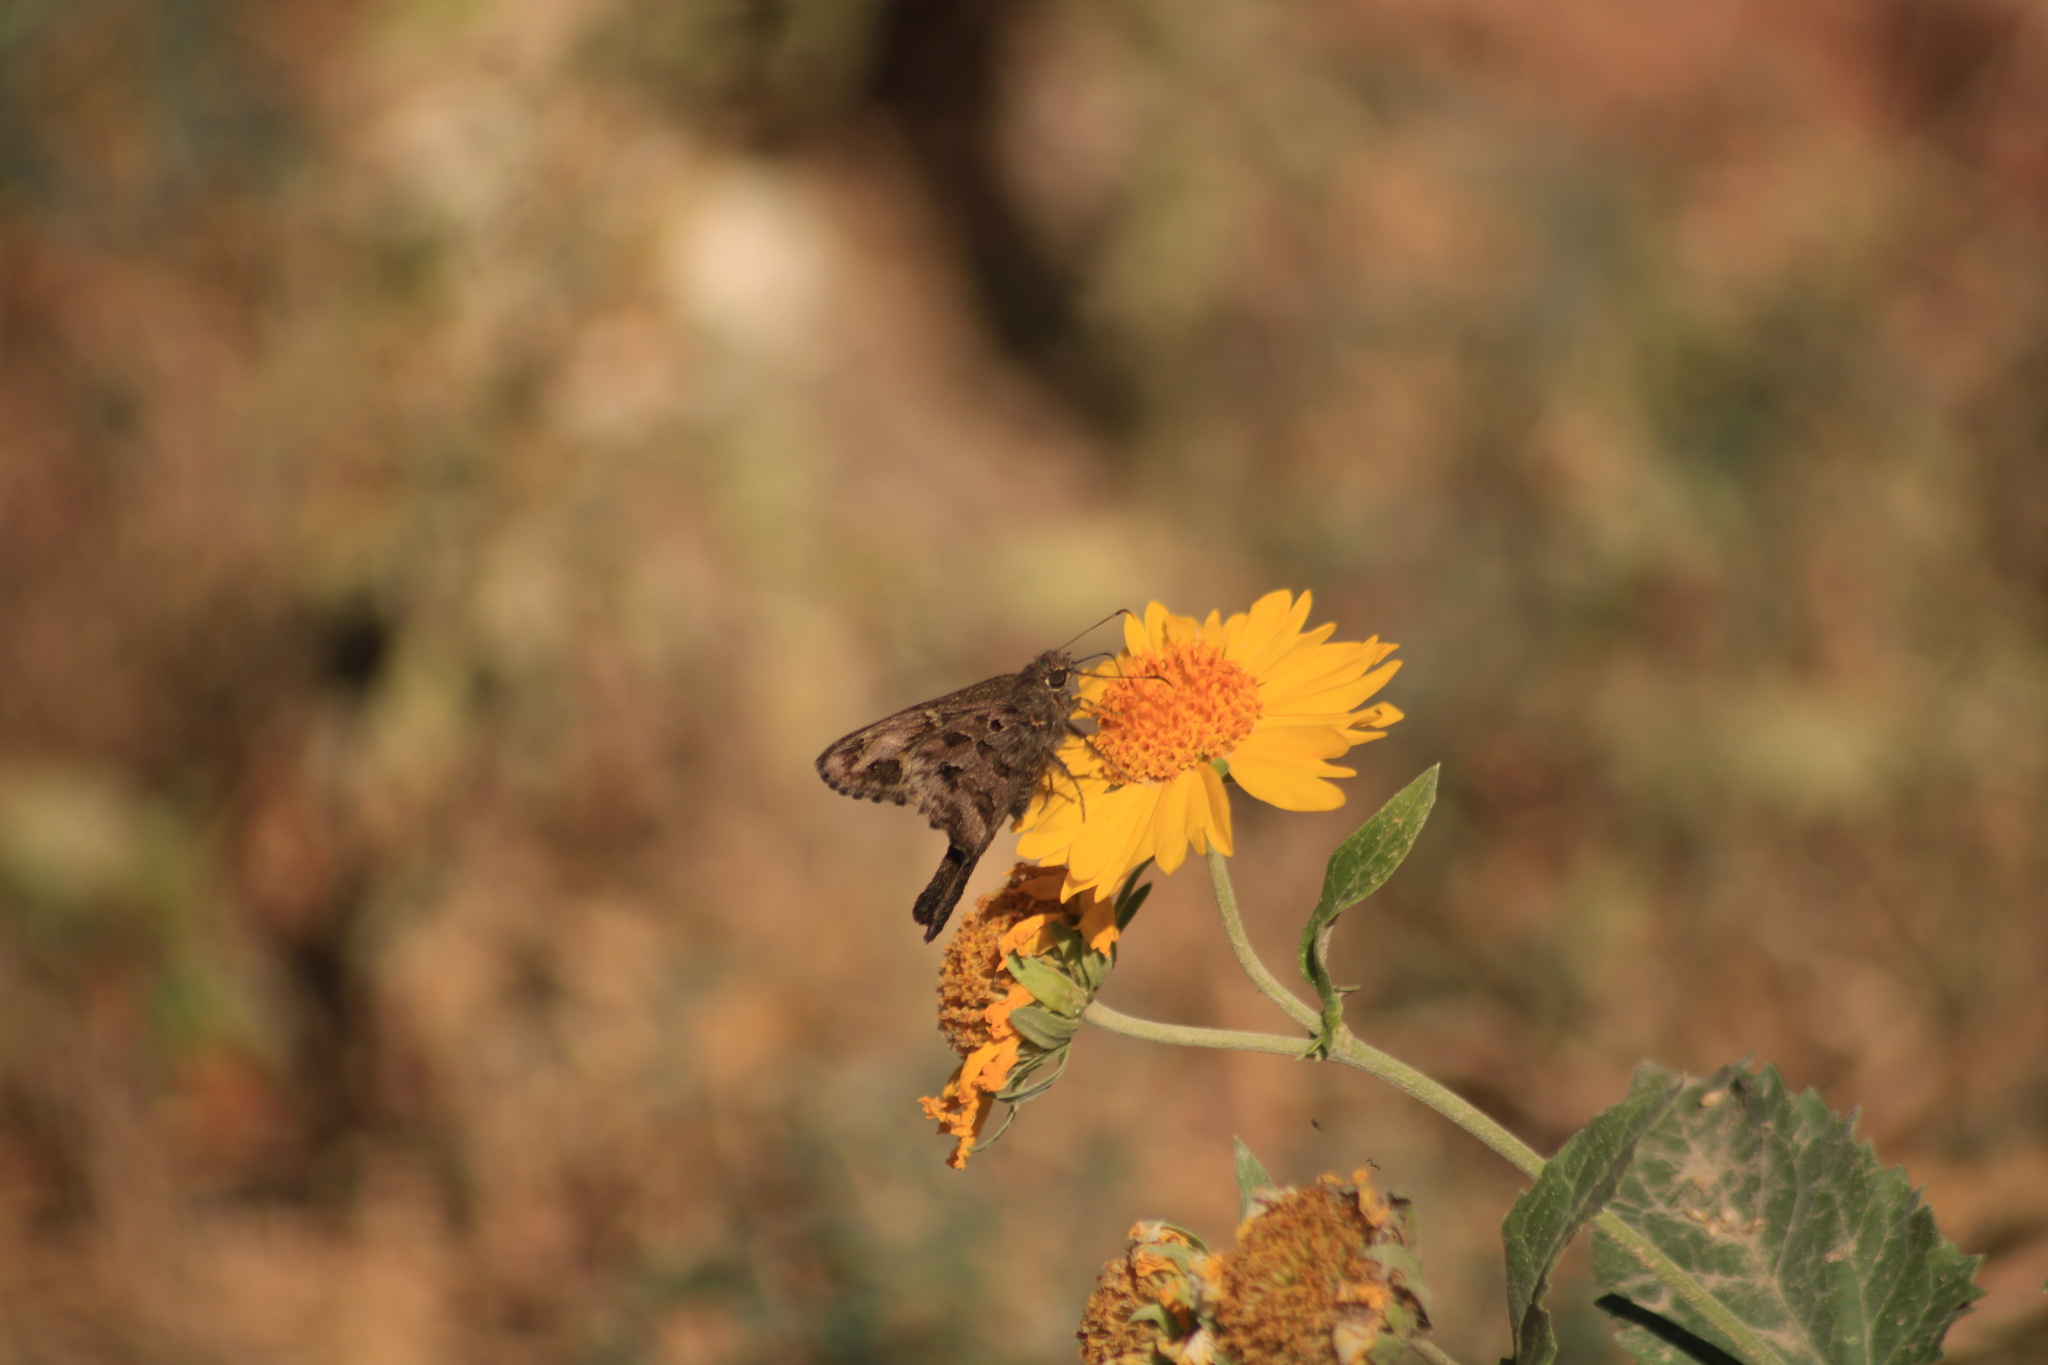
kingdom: Animalia
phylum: Arthropoda
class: Insecta
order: Lepidoptera
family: Hesperiidae
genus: Thorybes
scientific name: Thorybes
